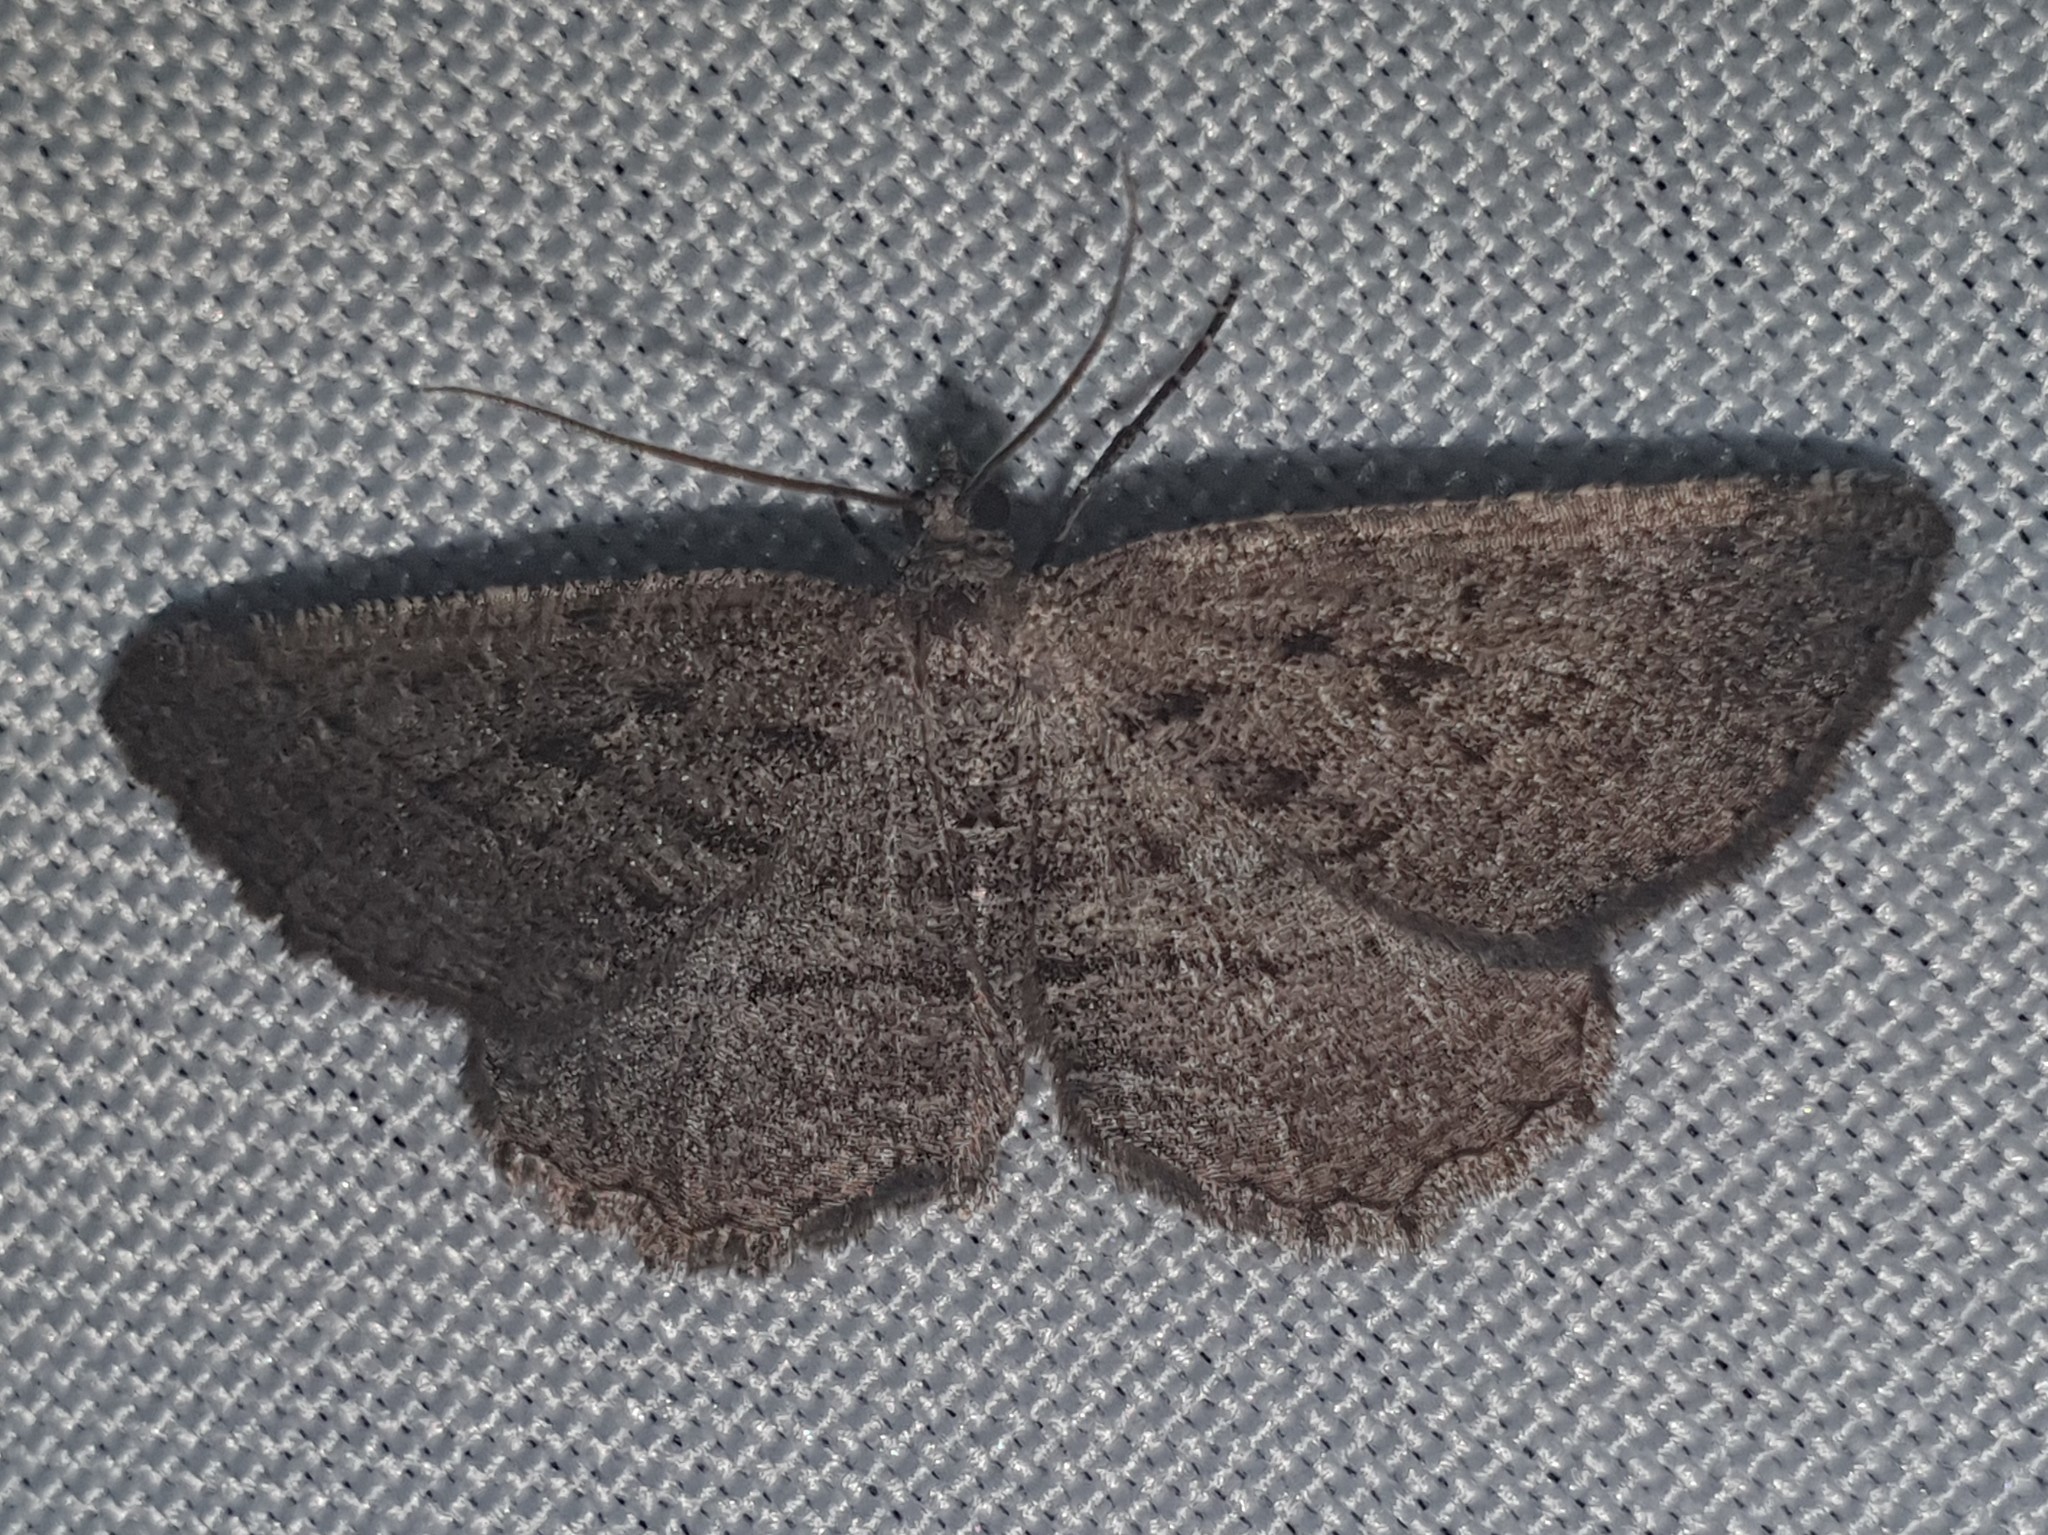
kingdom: Animalia
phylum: Arthropoda
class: Insecta
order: Lepidoptera
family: Geometridae
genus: Rhoptria
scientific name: Rhoptria asperaria
